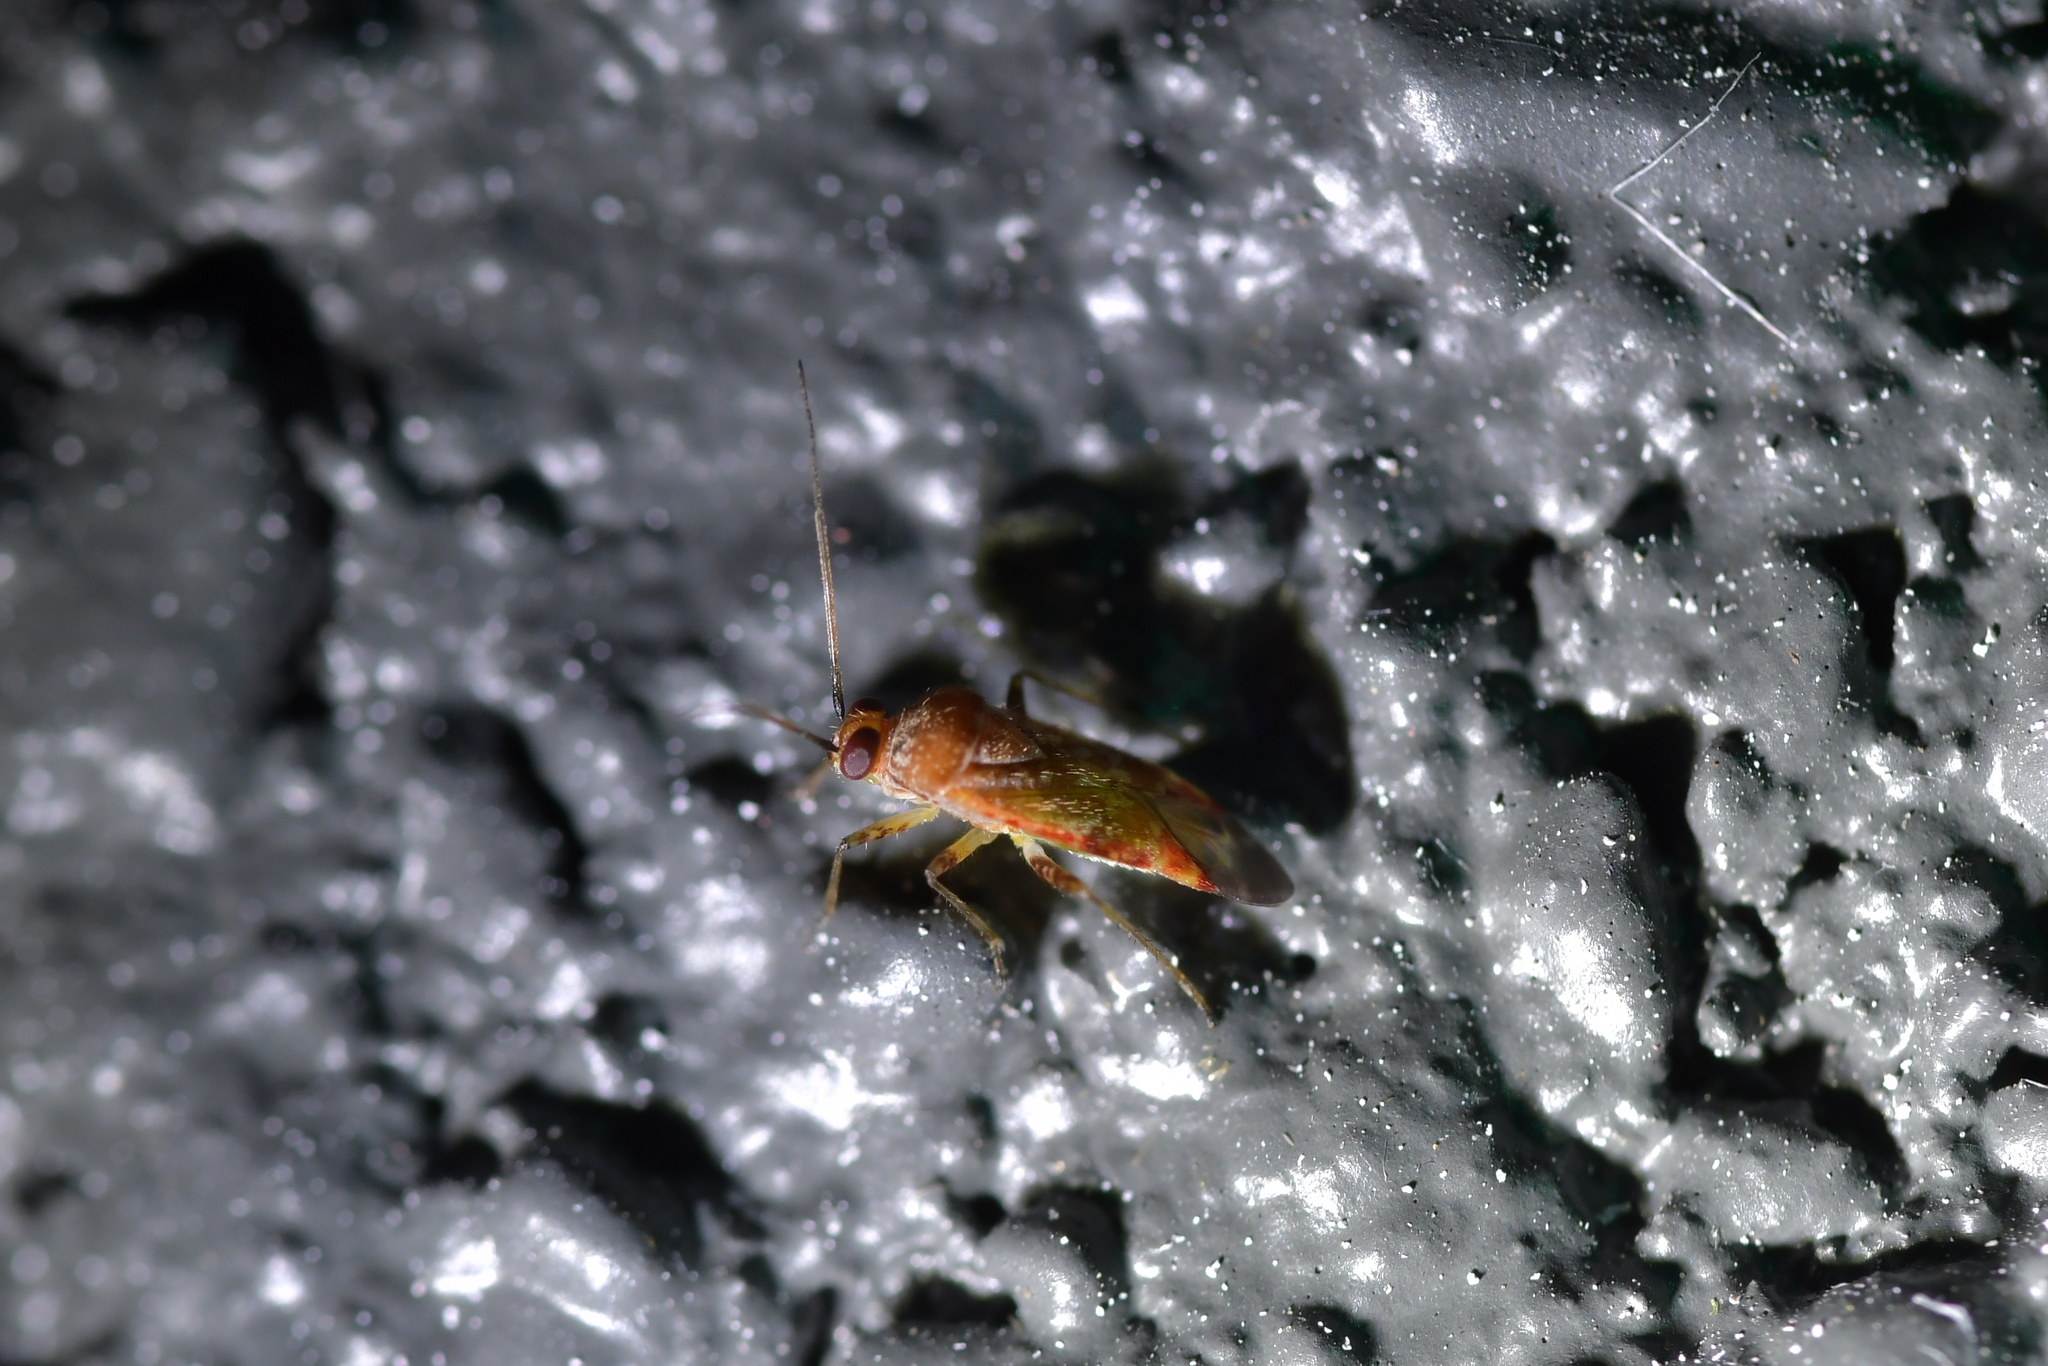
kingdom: Animalia
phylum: Arthropoda
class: Insecta
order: Hemiptera
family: Miridae
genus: Tinginotum
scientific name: Tinginotum minutum
